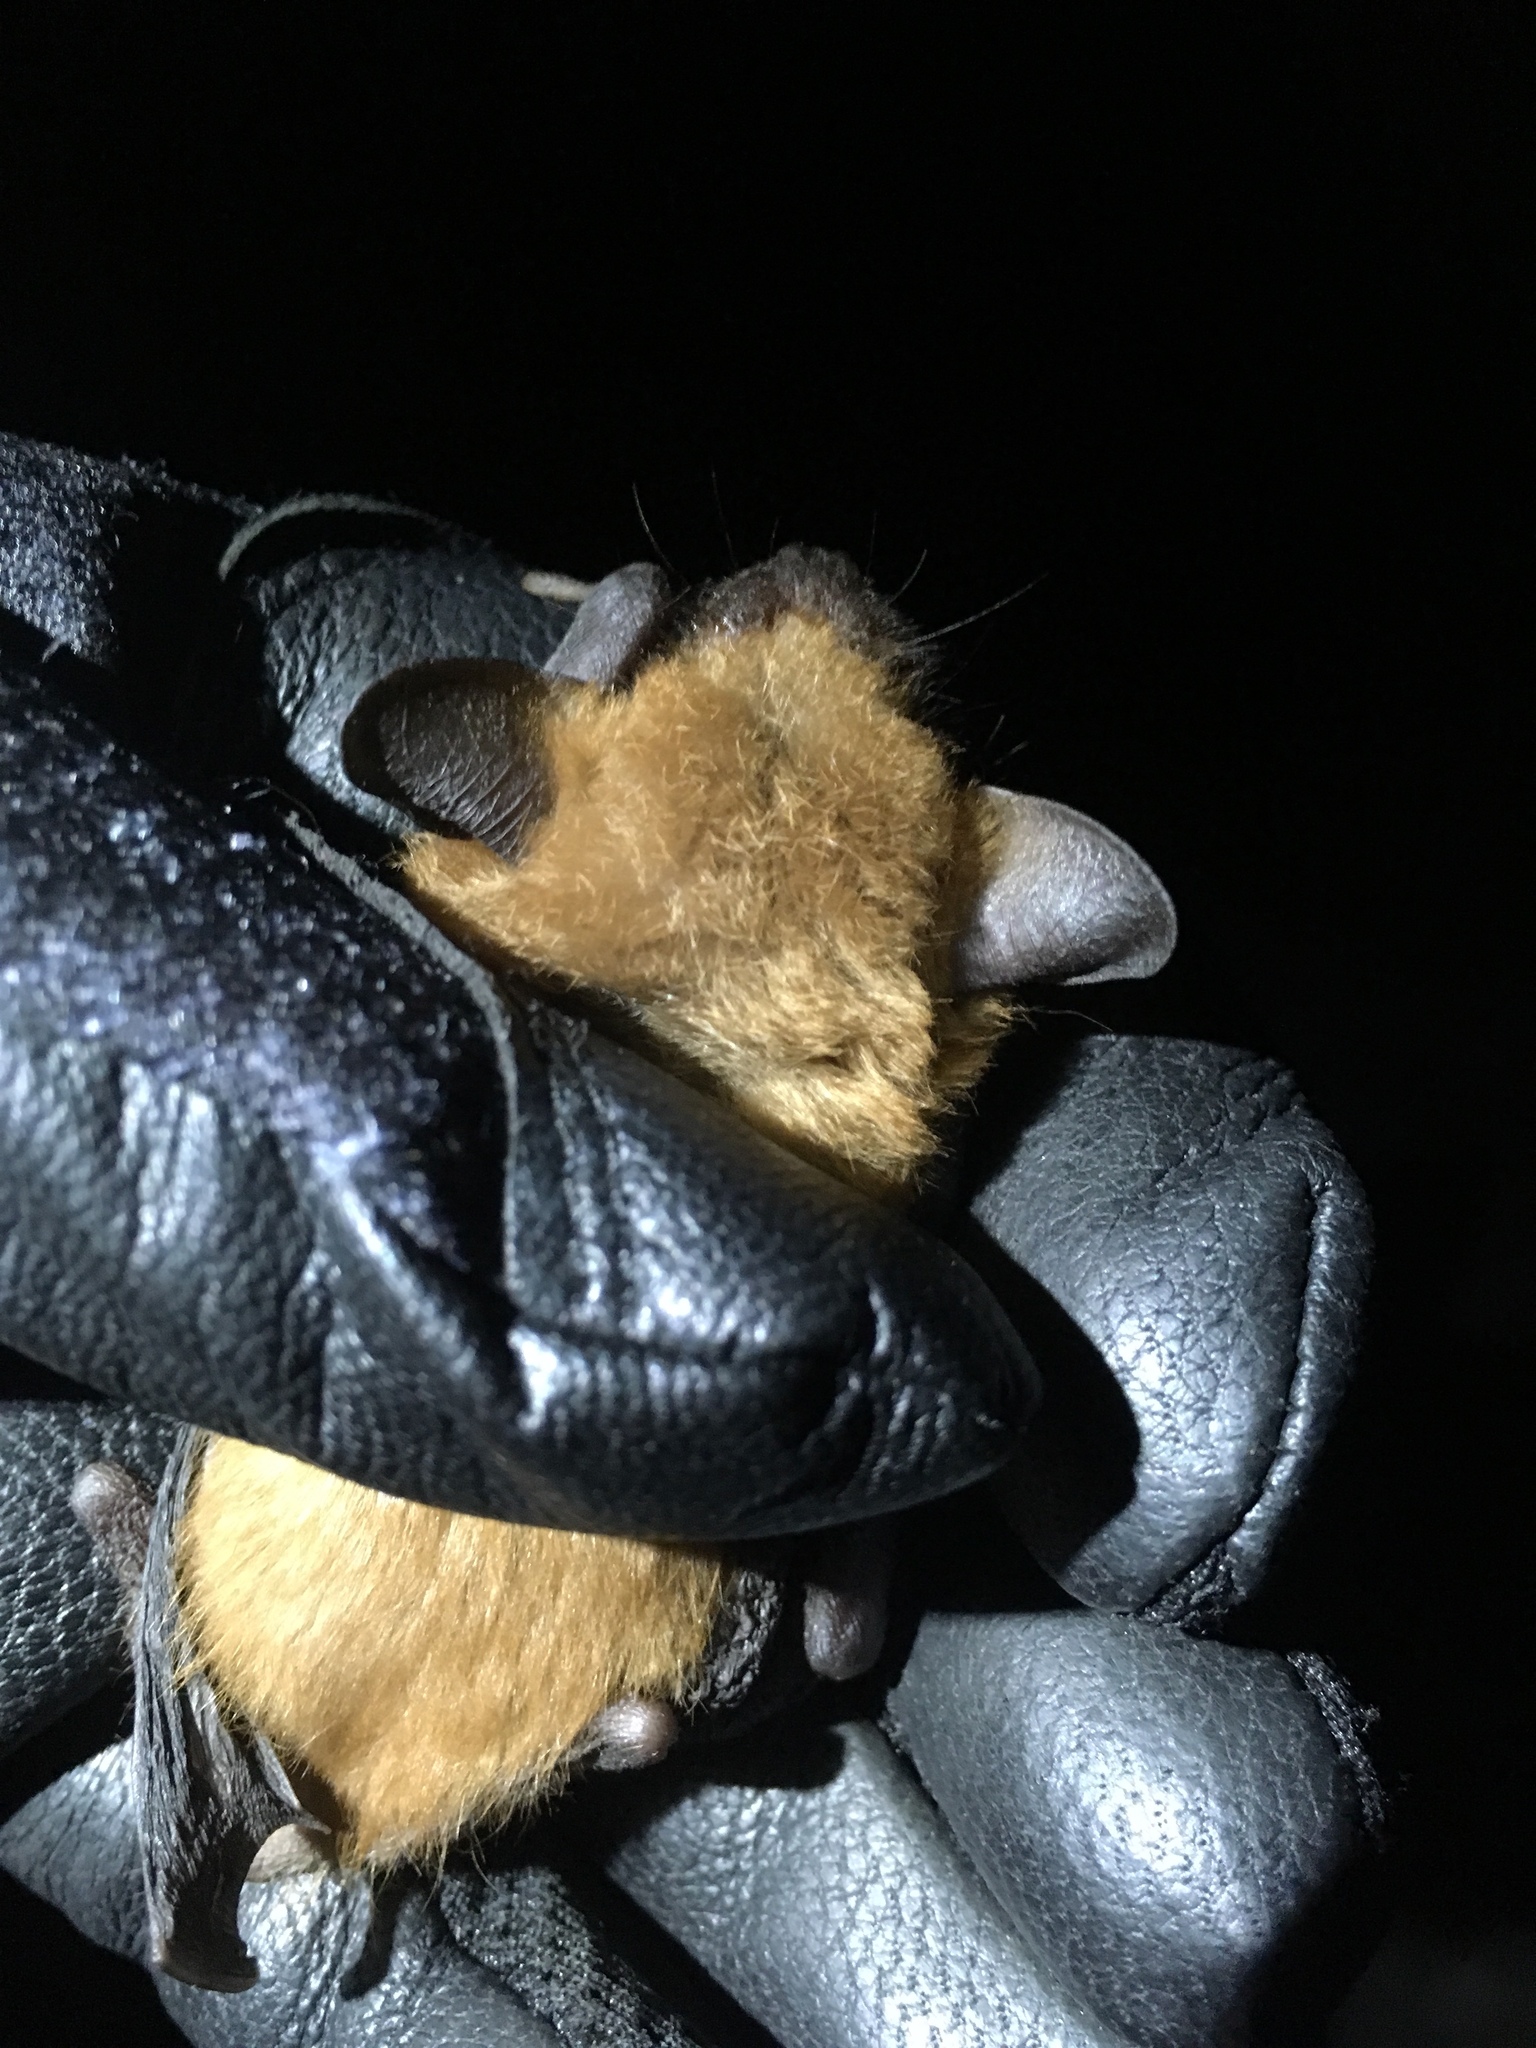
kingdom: Animalia
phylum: Chordata
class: Mammalia
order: Chiroptera
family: Vespertilionidae
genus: Eptesicus
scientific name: Eptesicus fuscus
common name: Big brown bat
